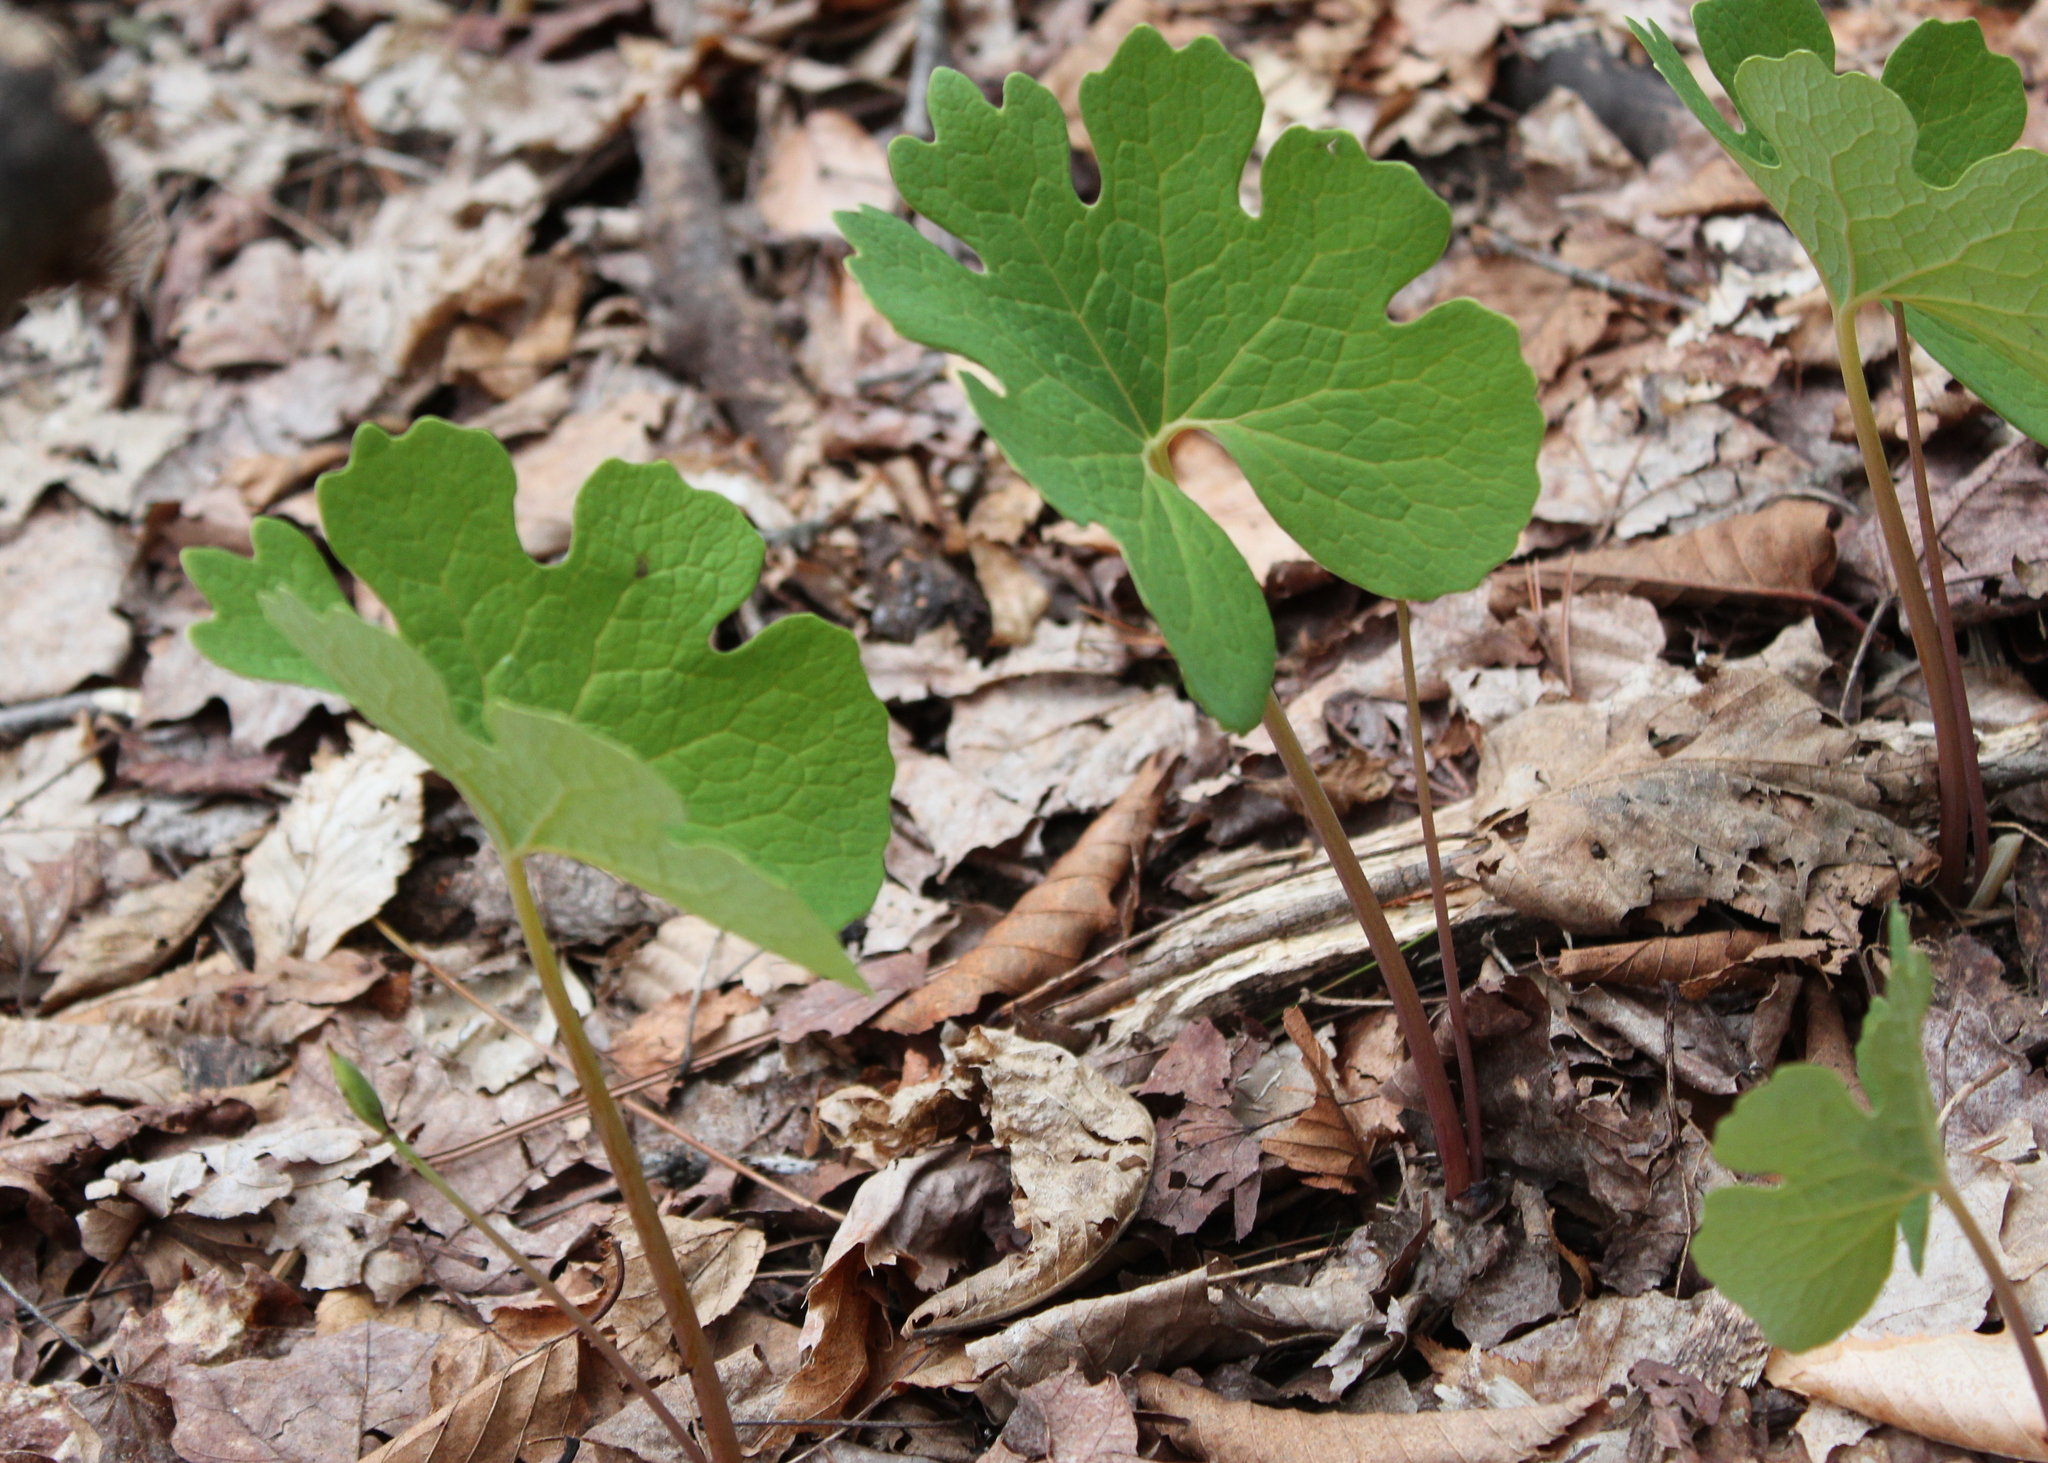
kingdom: Plantae
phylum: Tracheophyta
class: Magnoliopsida
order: Ranunculales
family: Papaveraceae
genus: Sanguinaria
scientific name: Sanguinaria canadensis
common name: Bloodroot
